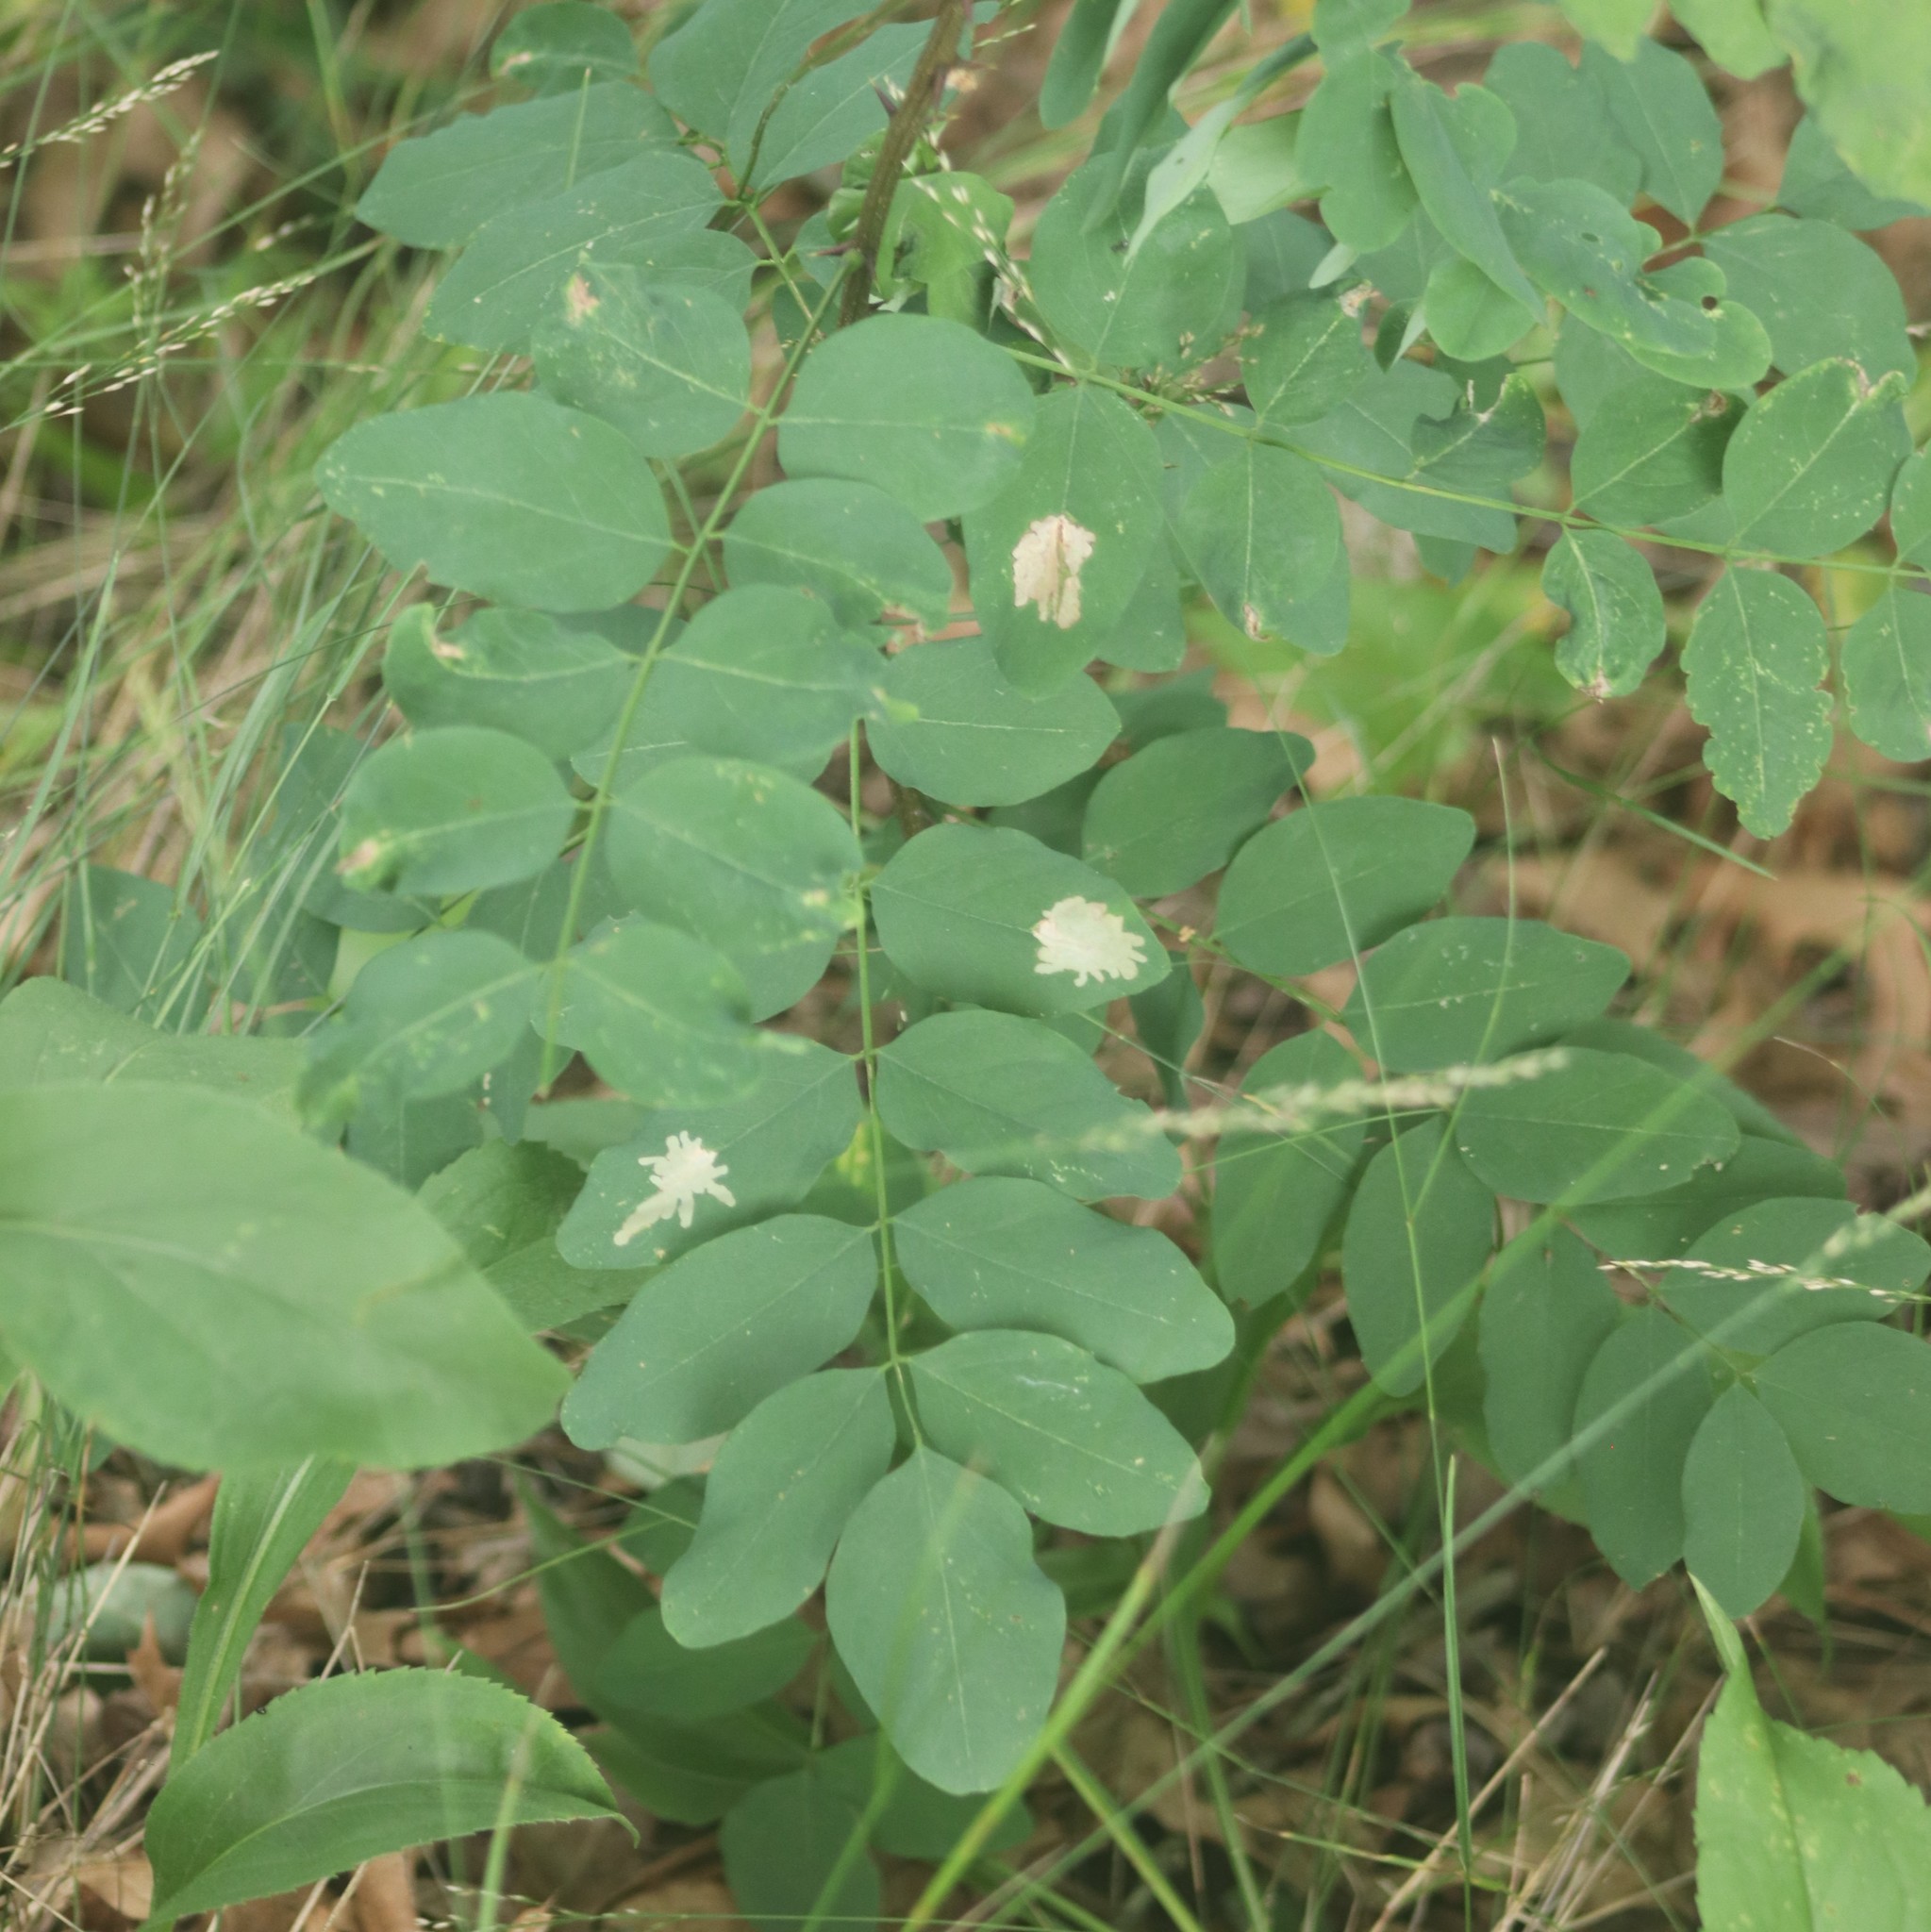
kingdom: Plantae
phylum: Tracheophyta
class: Magnoliopsida
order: Fabales
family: Fabaceae
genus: Robinia
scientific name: Robinia pseudoacacia
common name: Black locust
